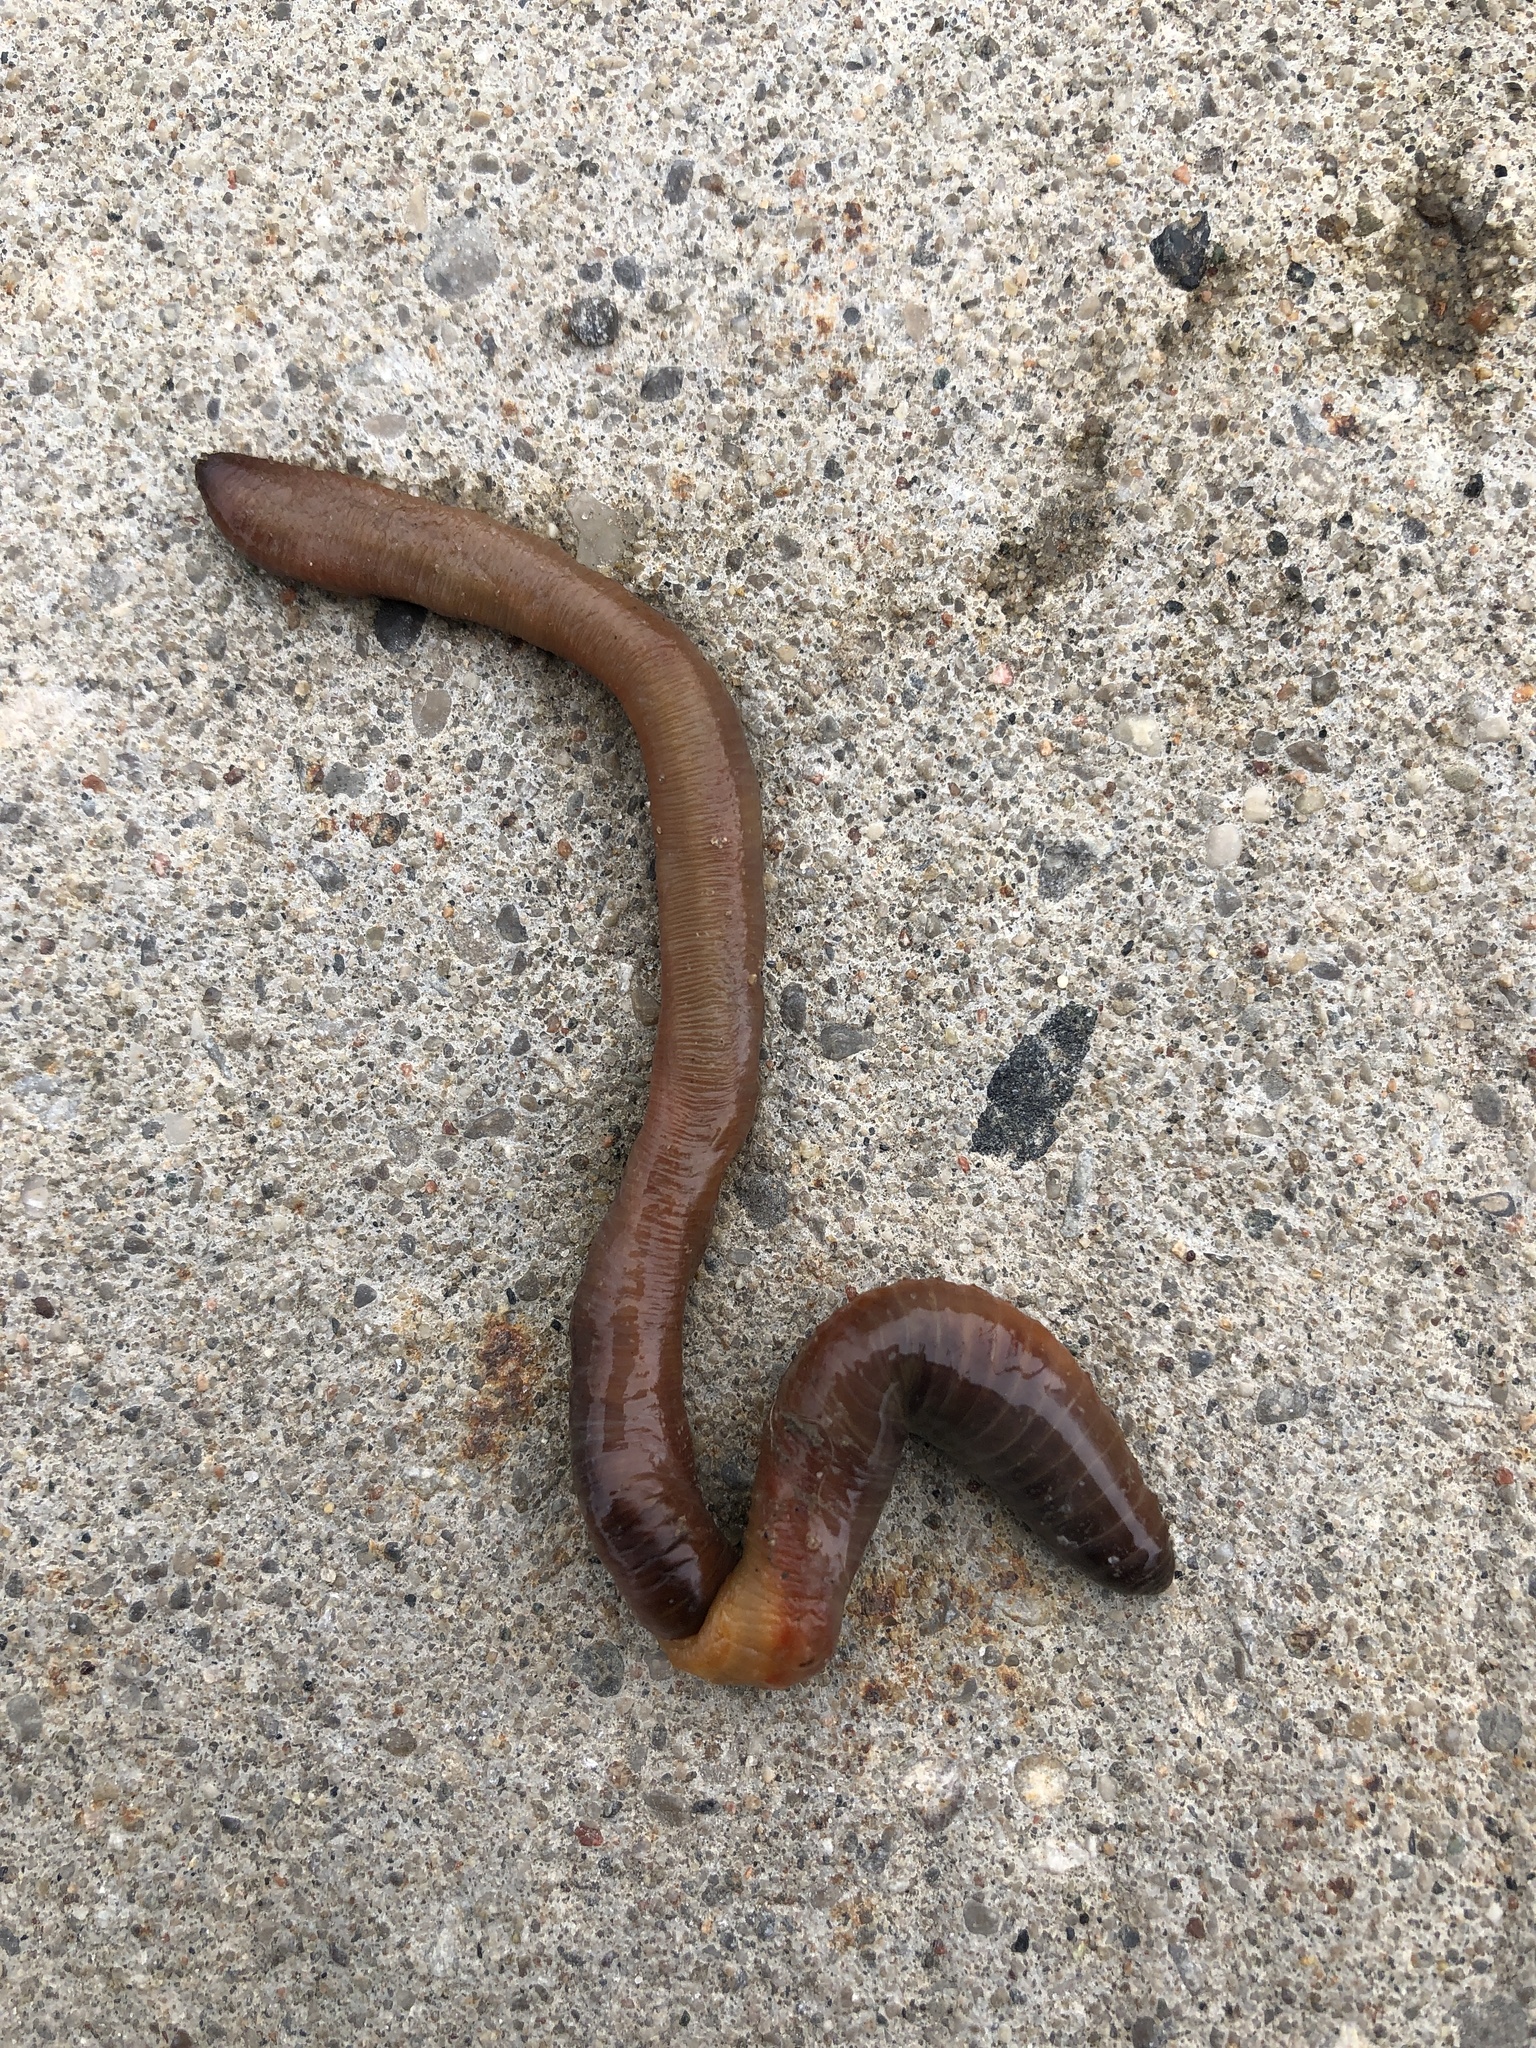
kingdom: Animalia
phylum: Annelida
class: Clitellata
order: Crassiclitellata
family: Lumbricidae
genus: Lumbricus
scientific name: Lumbricus terrestris
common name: Common earthworm
